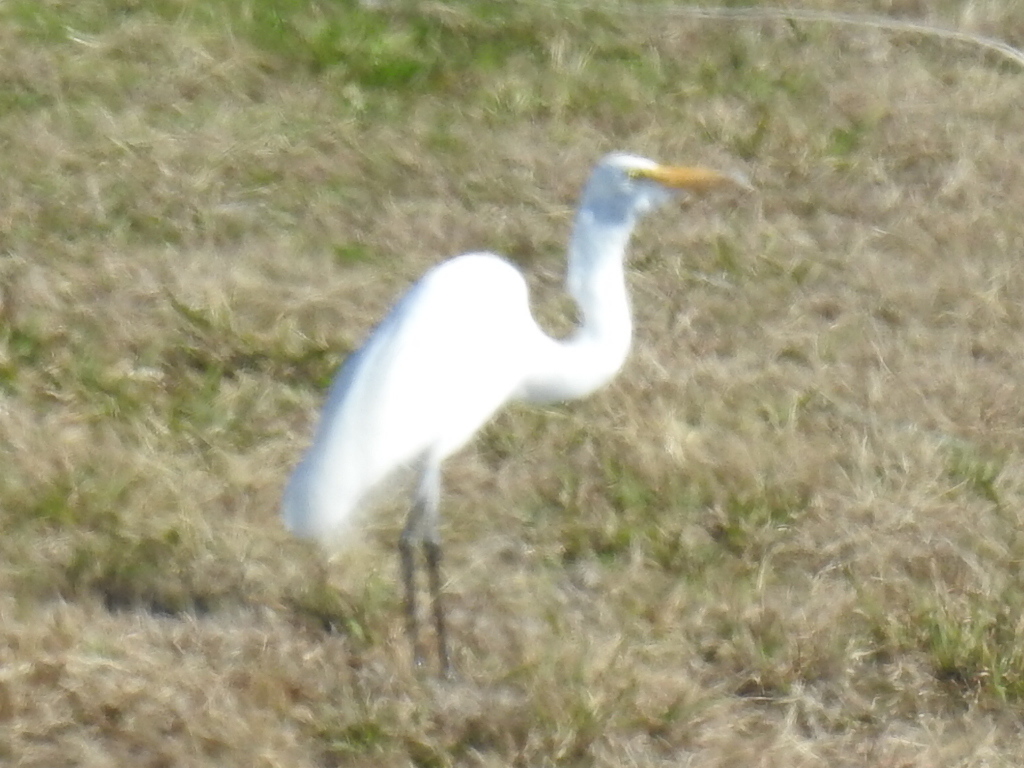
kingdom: Animalia
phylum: Chordata
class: Aves
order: Pelecaniformes
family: Ardeidae
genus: Ardea
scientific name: Ardea alba
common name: Great egret
